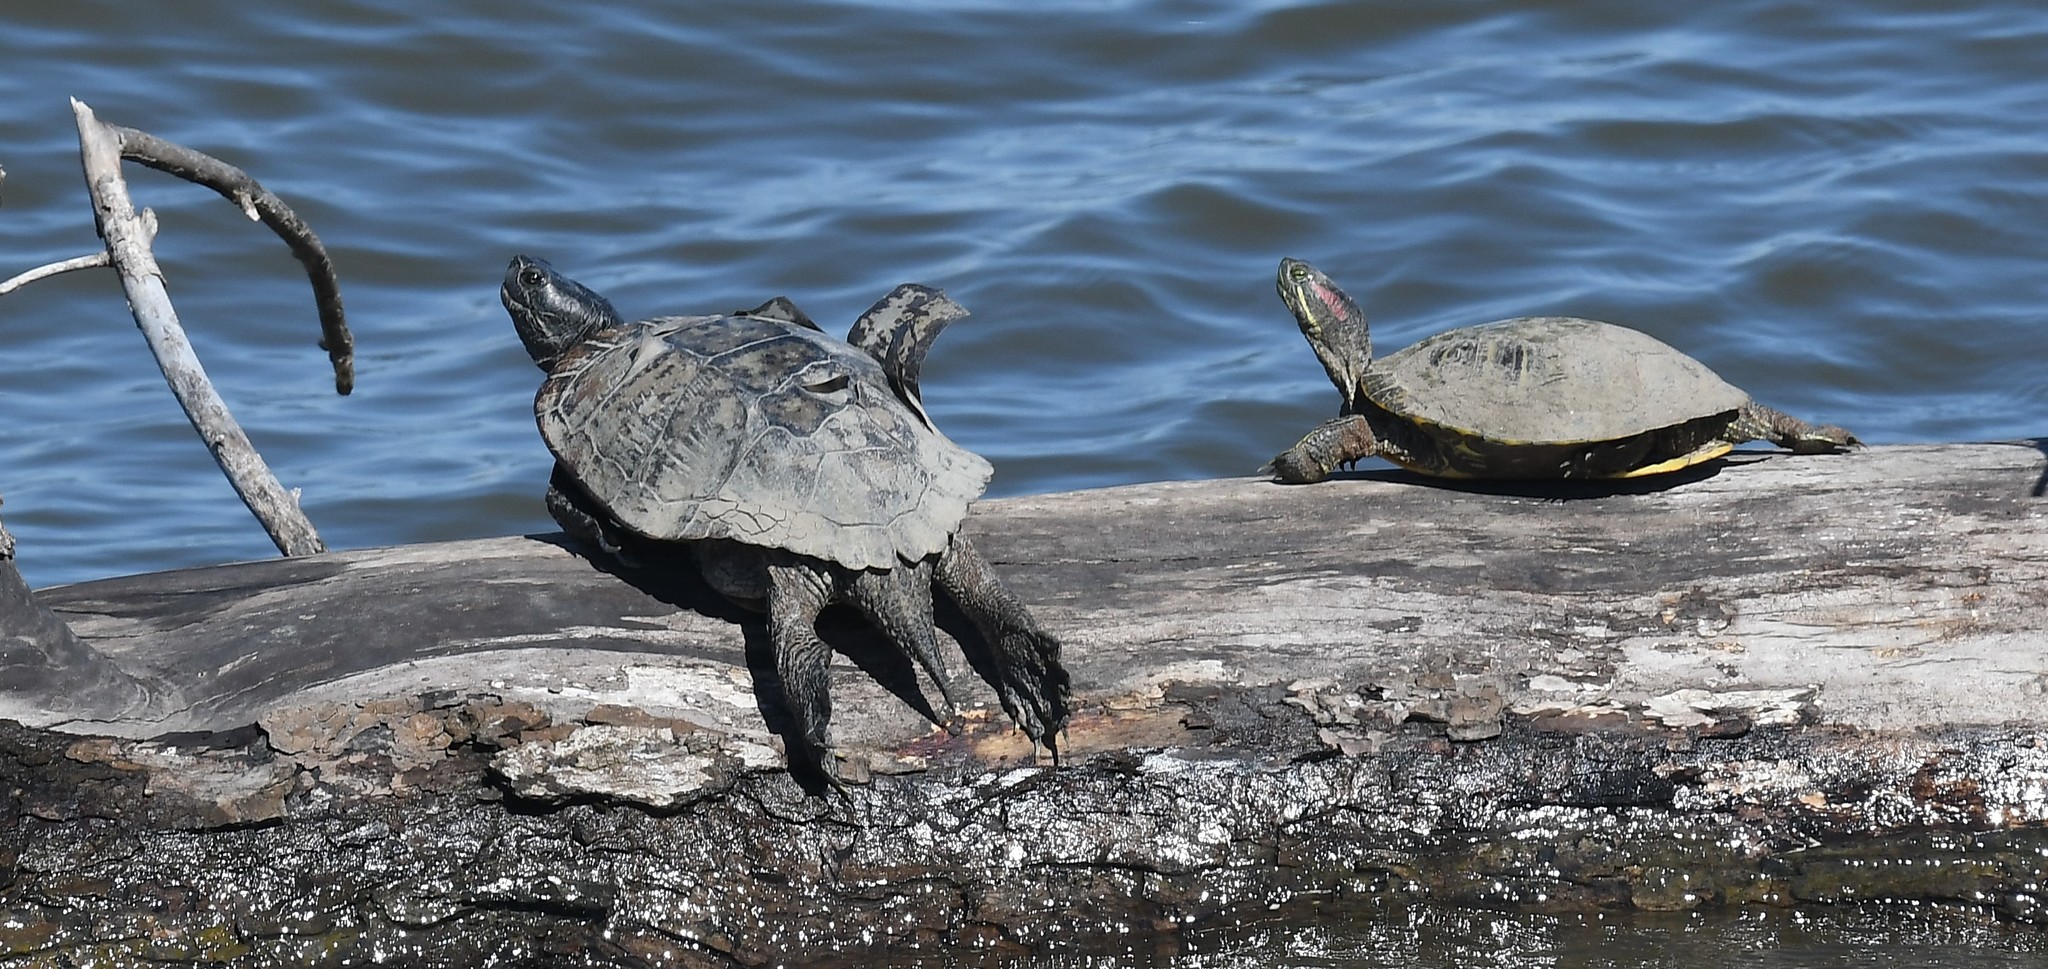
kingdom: Animalia
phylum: Chordata
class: Testudines
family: Emydidae
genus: Trachemys
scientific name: Trachemys scripta
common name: Slider
